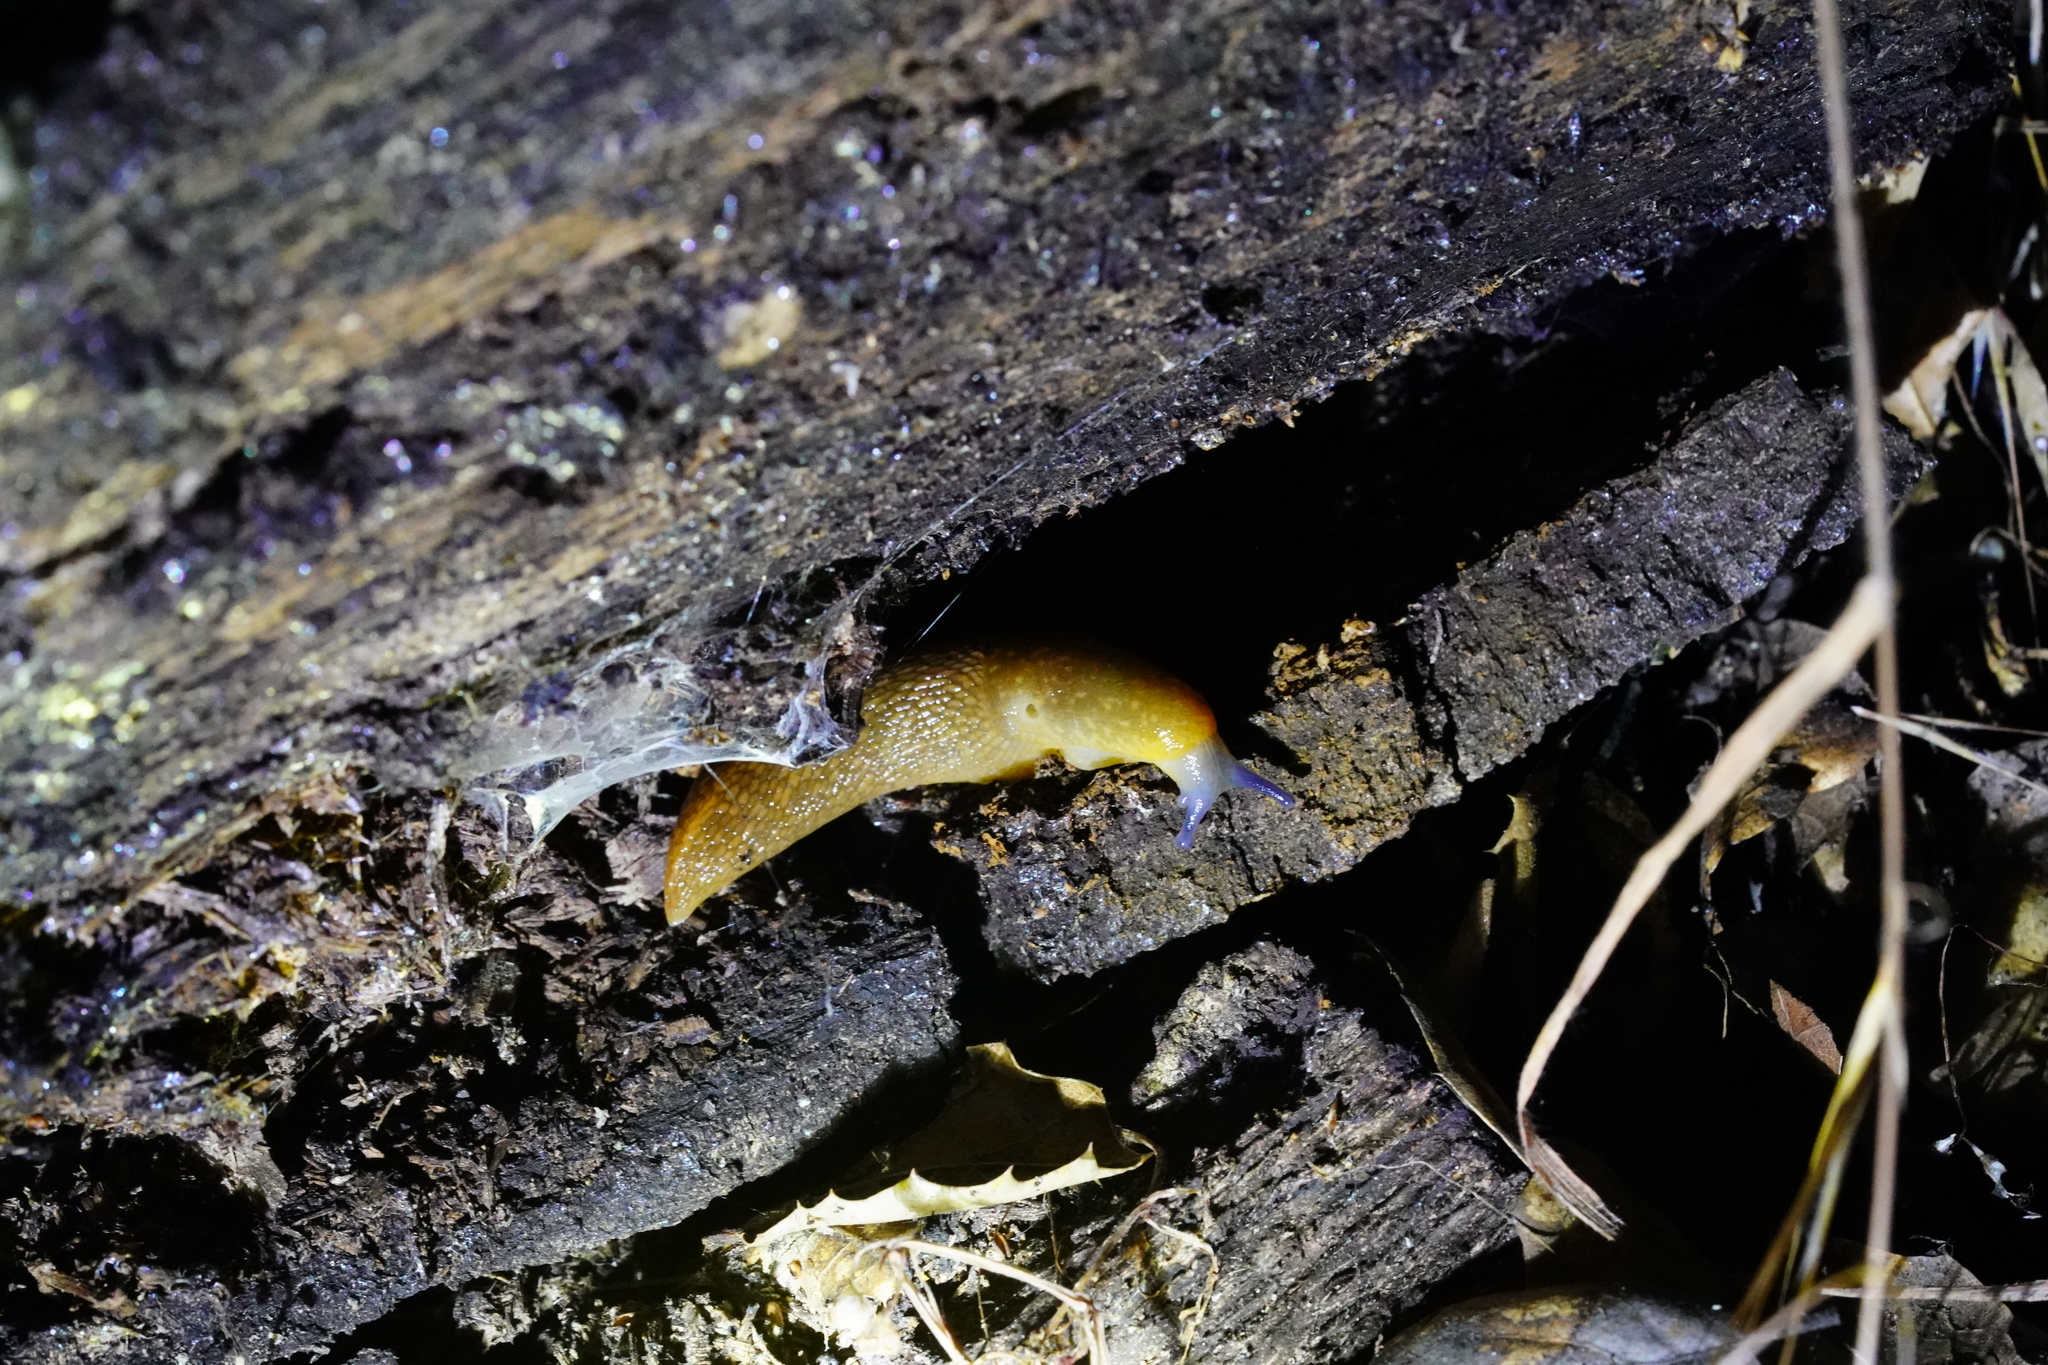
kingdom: Animalia
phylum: Mollusca
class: Gastropoda
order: Stylommatophora
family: Limacidae
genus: Limacus
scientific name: Limacus flavus
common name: Yellow gardenslug
